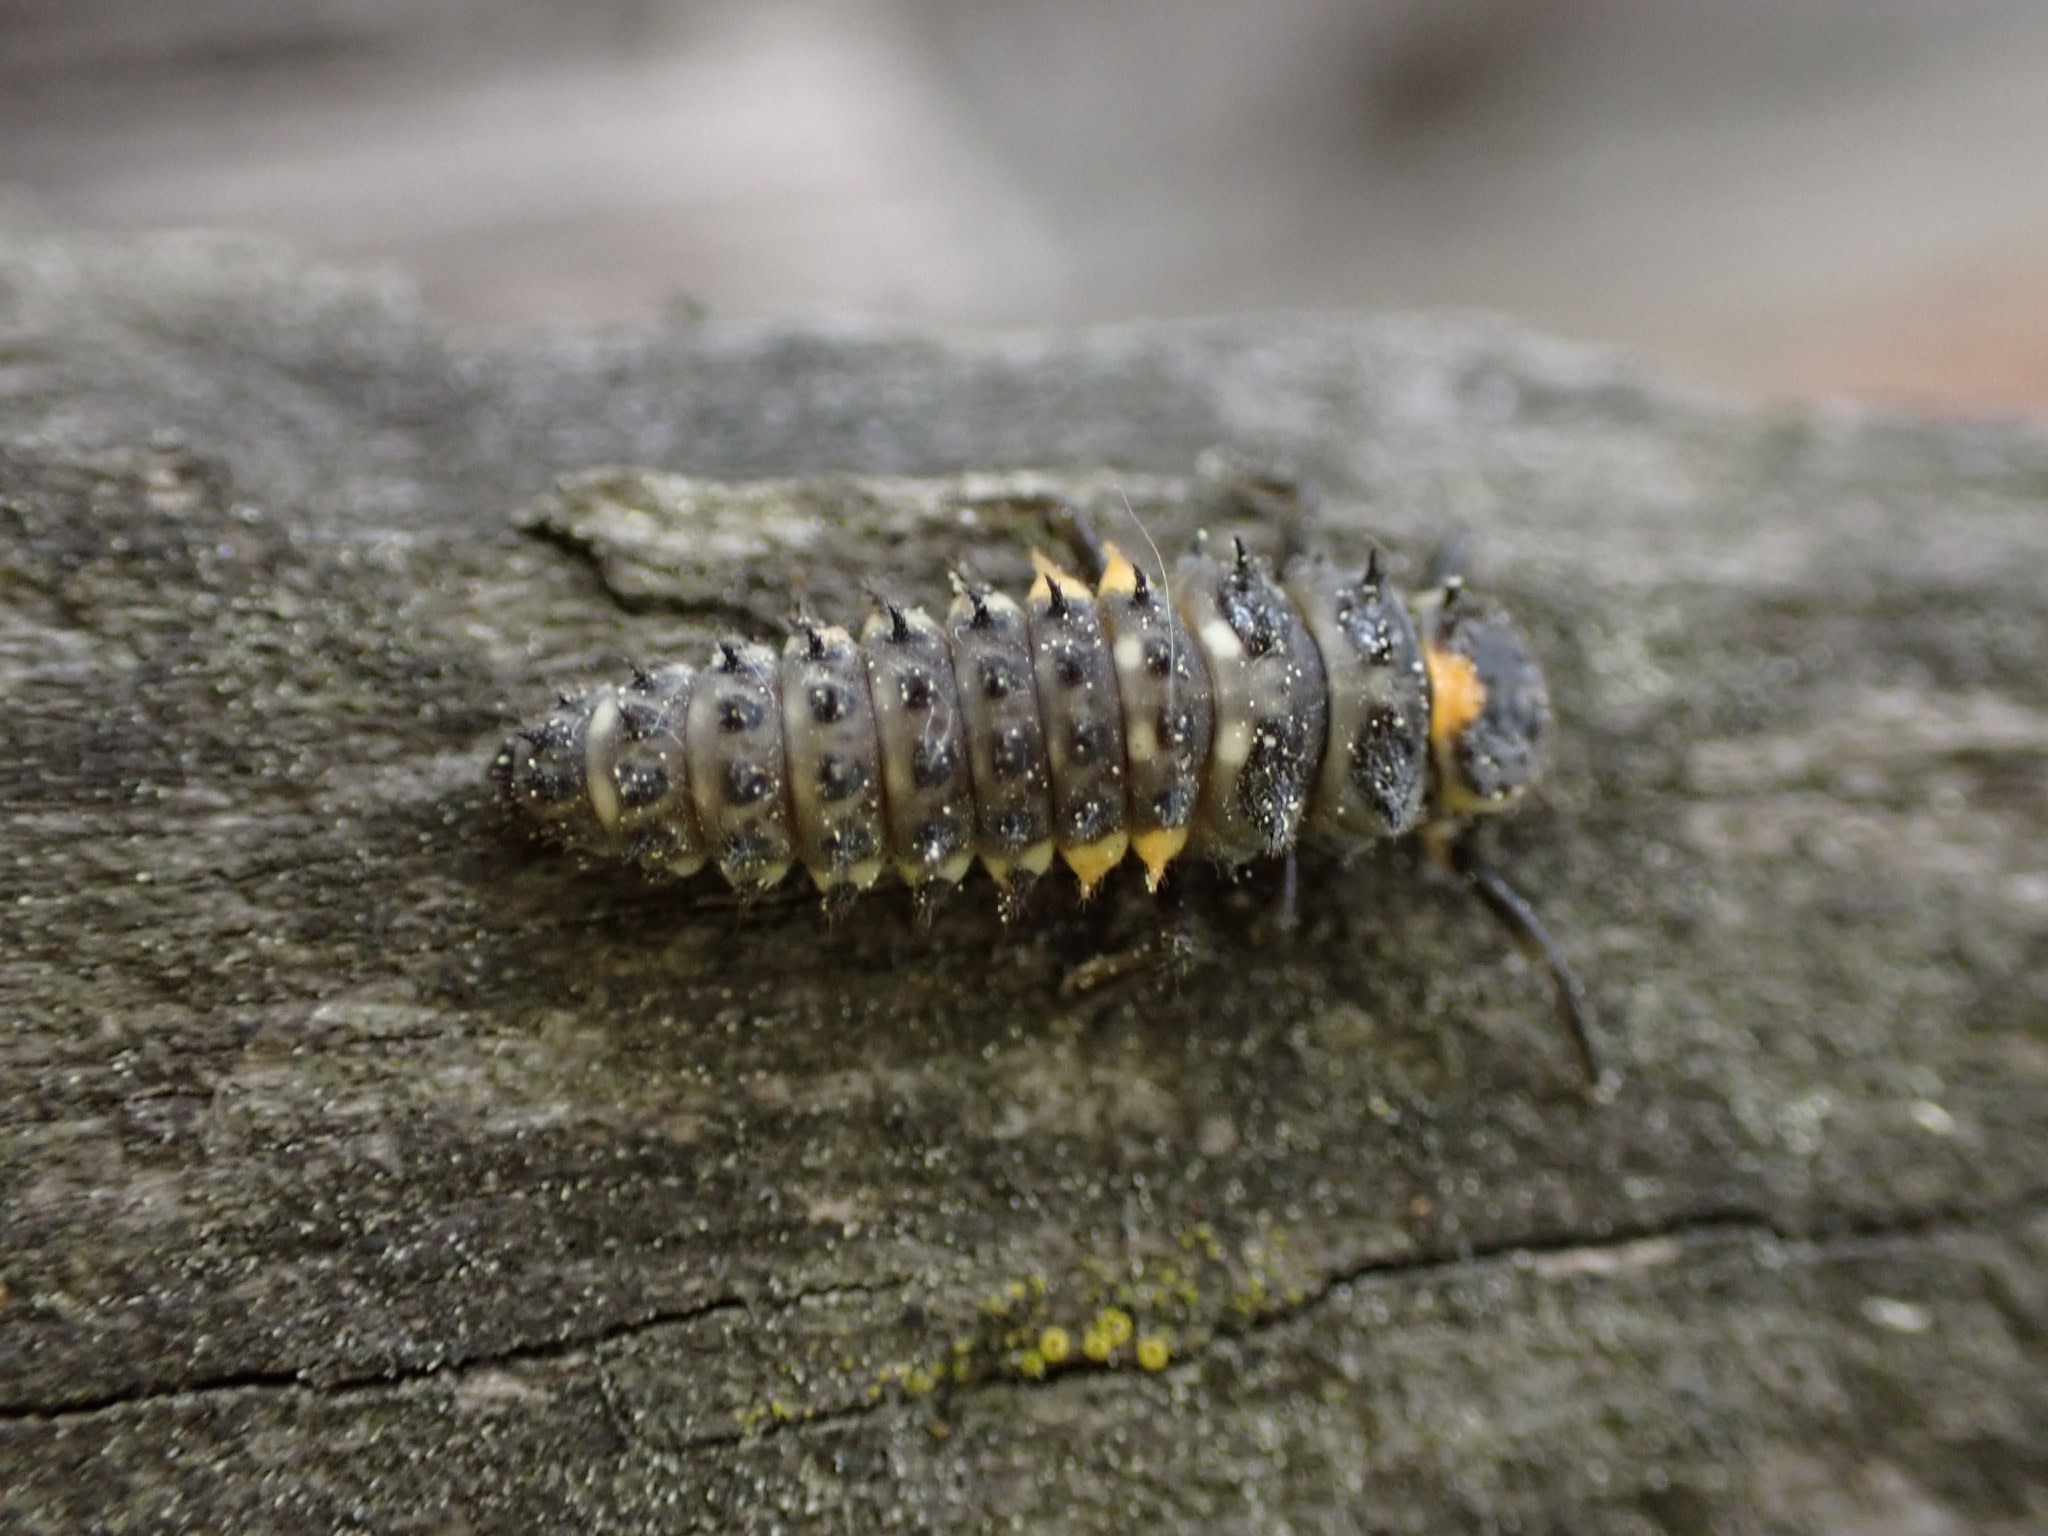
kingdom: Animalia
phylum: Arthropoda
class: Insecta
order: Coleoptera
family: Coccinellidae
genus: Anatis
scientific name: Anatis ocellata
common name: Eyed ladybird
